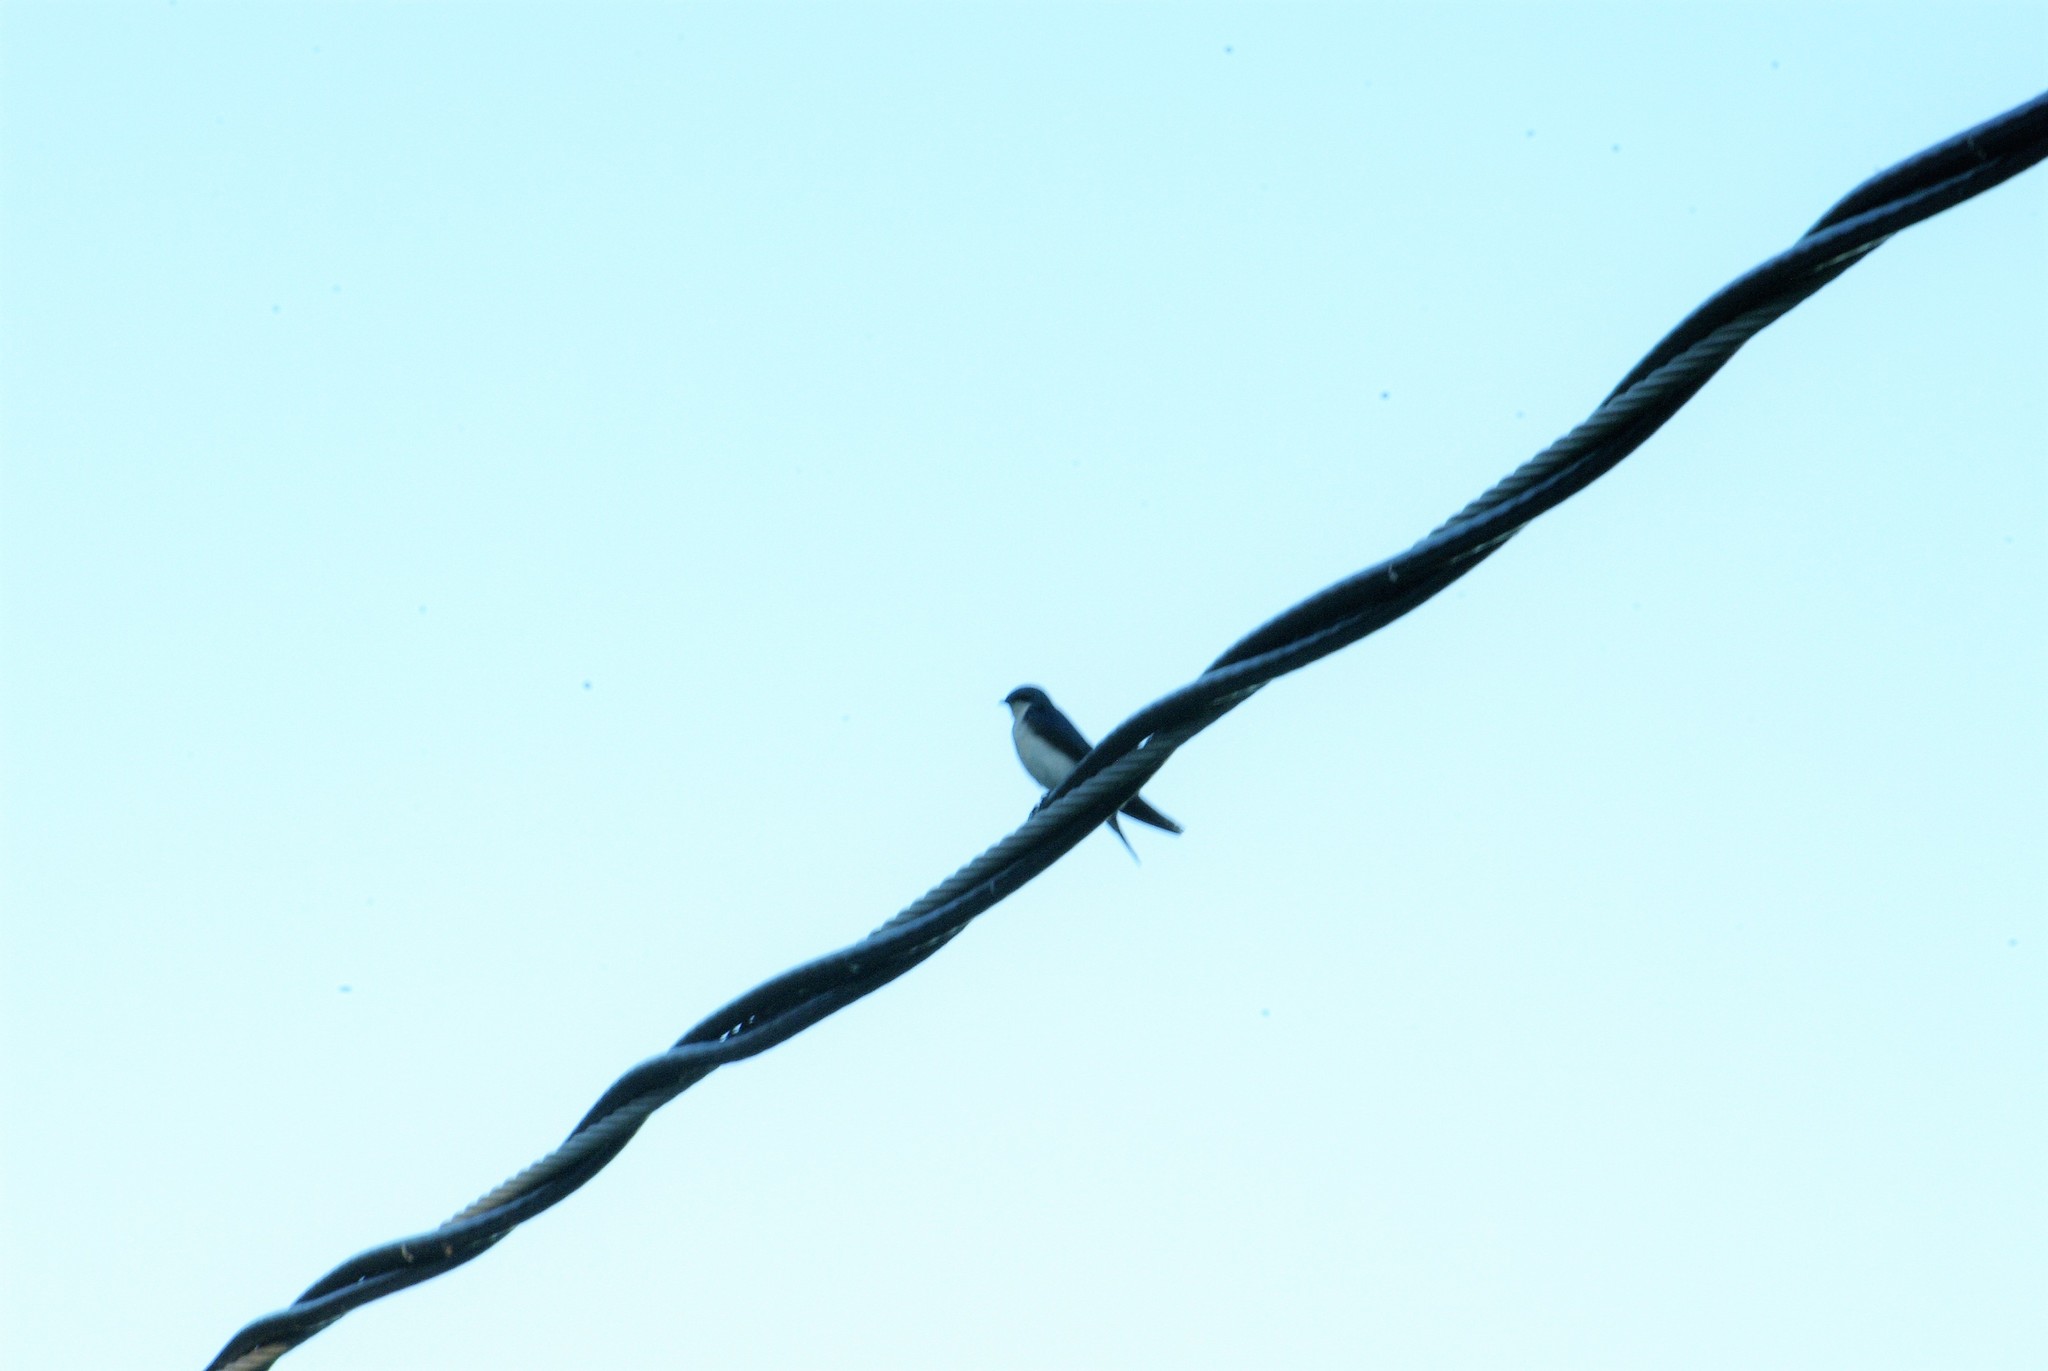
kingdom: Animalia
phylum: Chordata
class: Aves
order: Passeriformes
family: Hirundinidae
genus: Tachycineta
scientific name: Tachycineta bicolor
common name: Tree swallow
